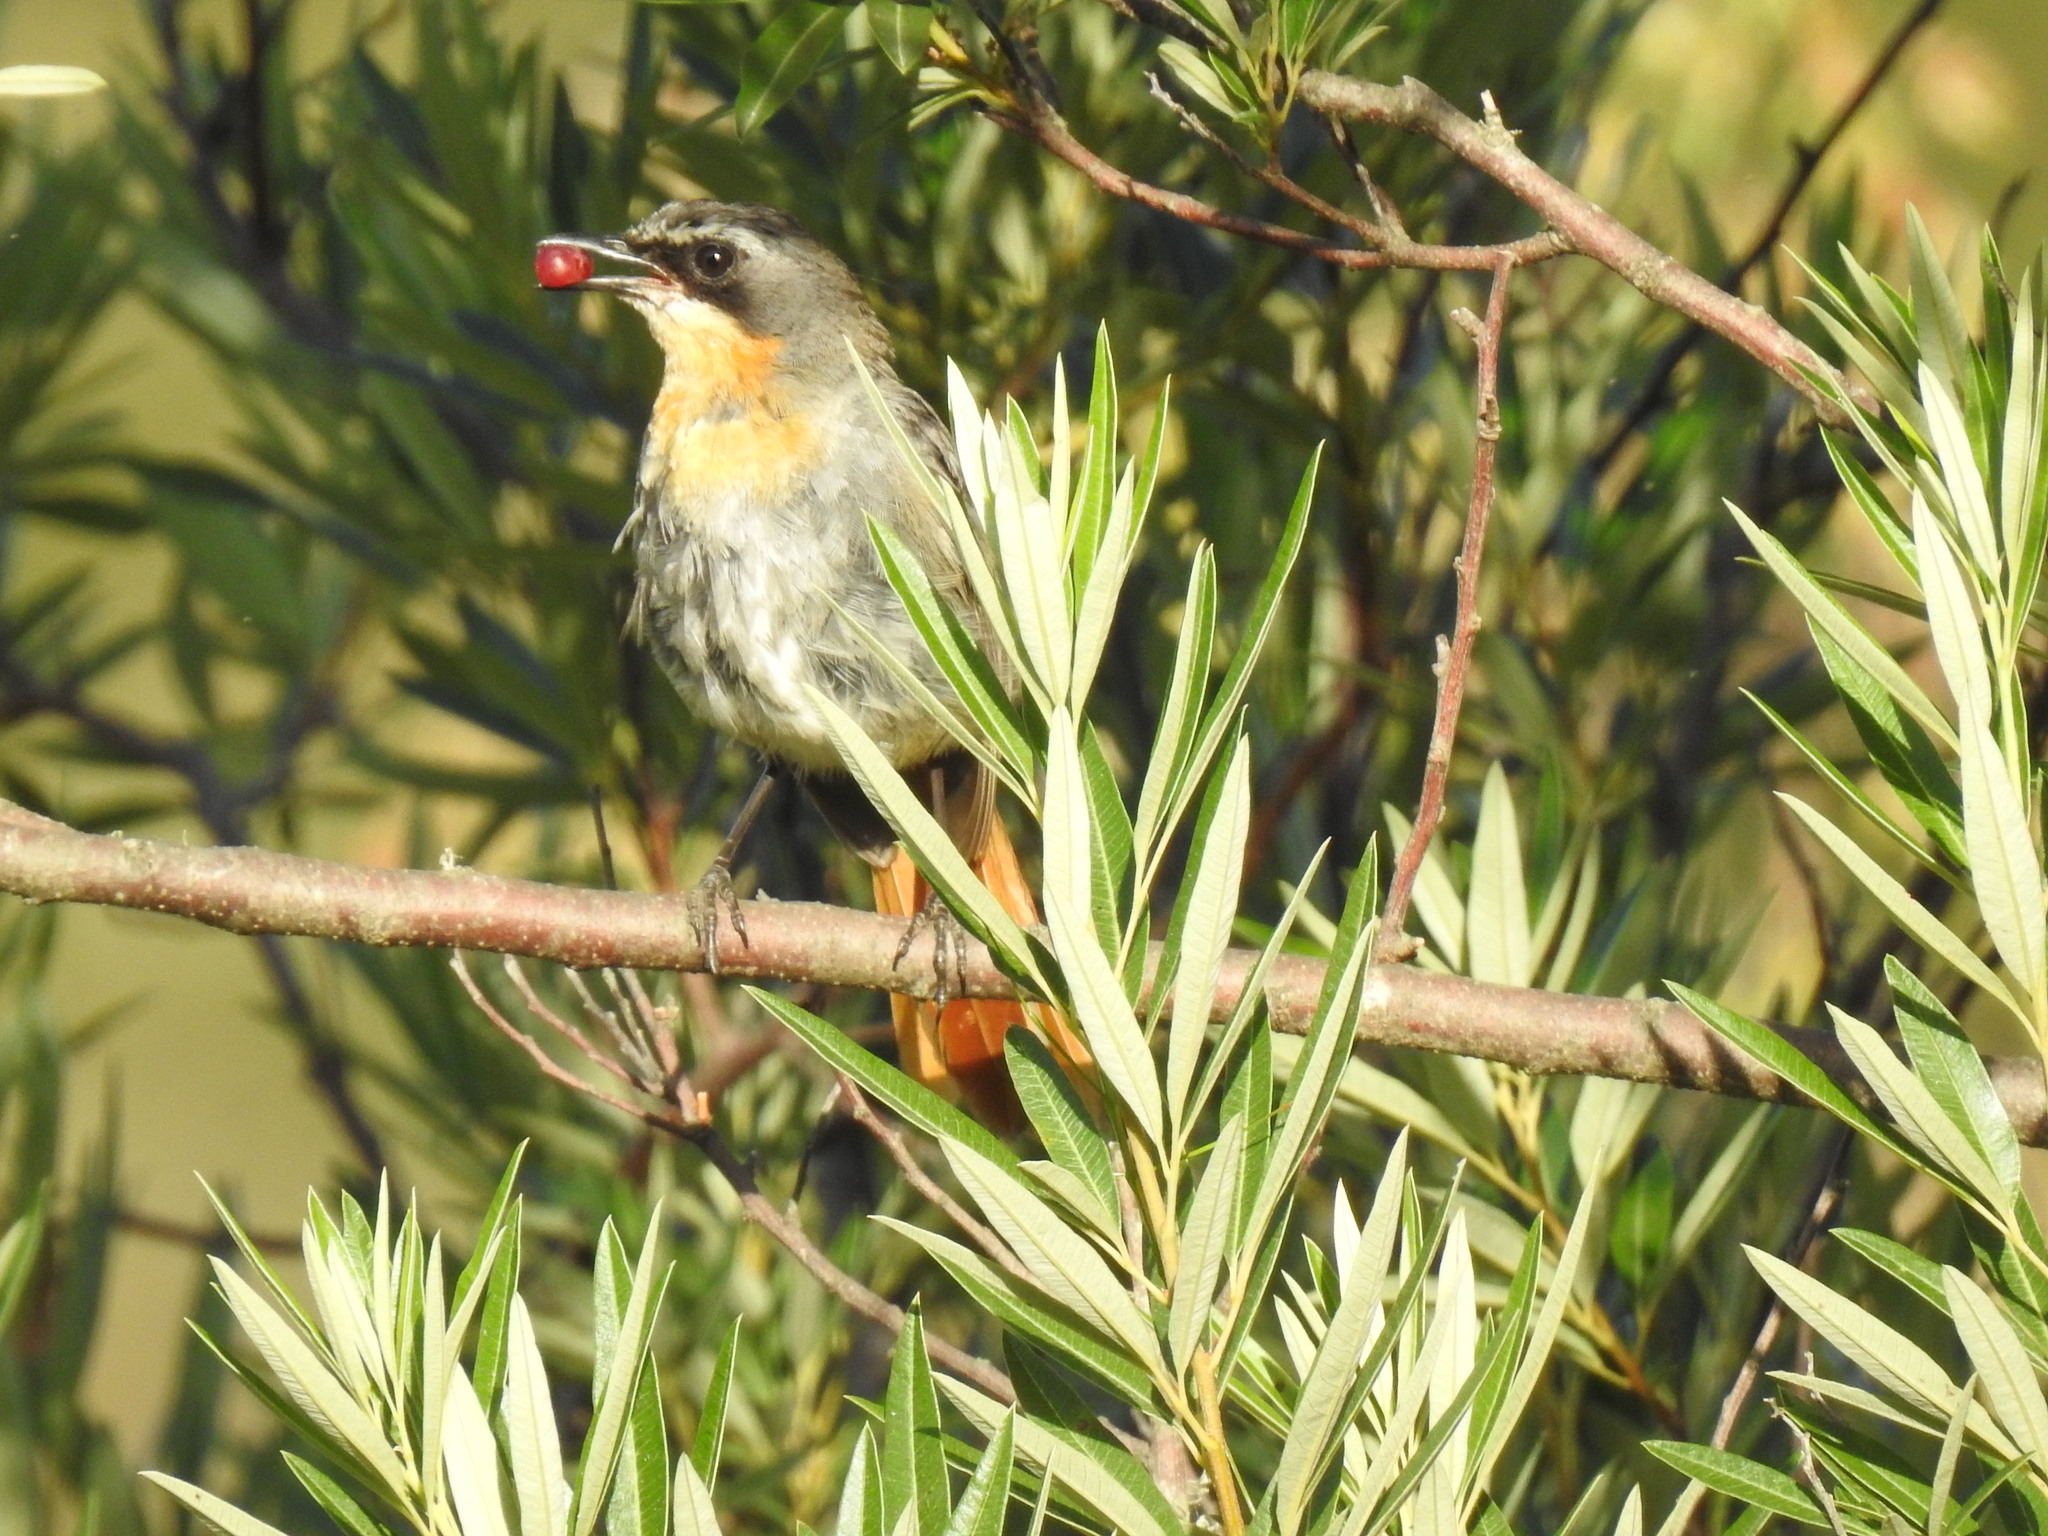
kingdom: Animalia
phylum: Chordata
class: Aves
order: Passeriformes
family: Muscicapidae
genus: Cossypha
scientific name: Cossypha caffra
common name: Cape robin-chat
